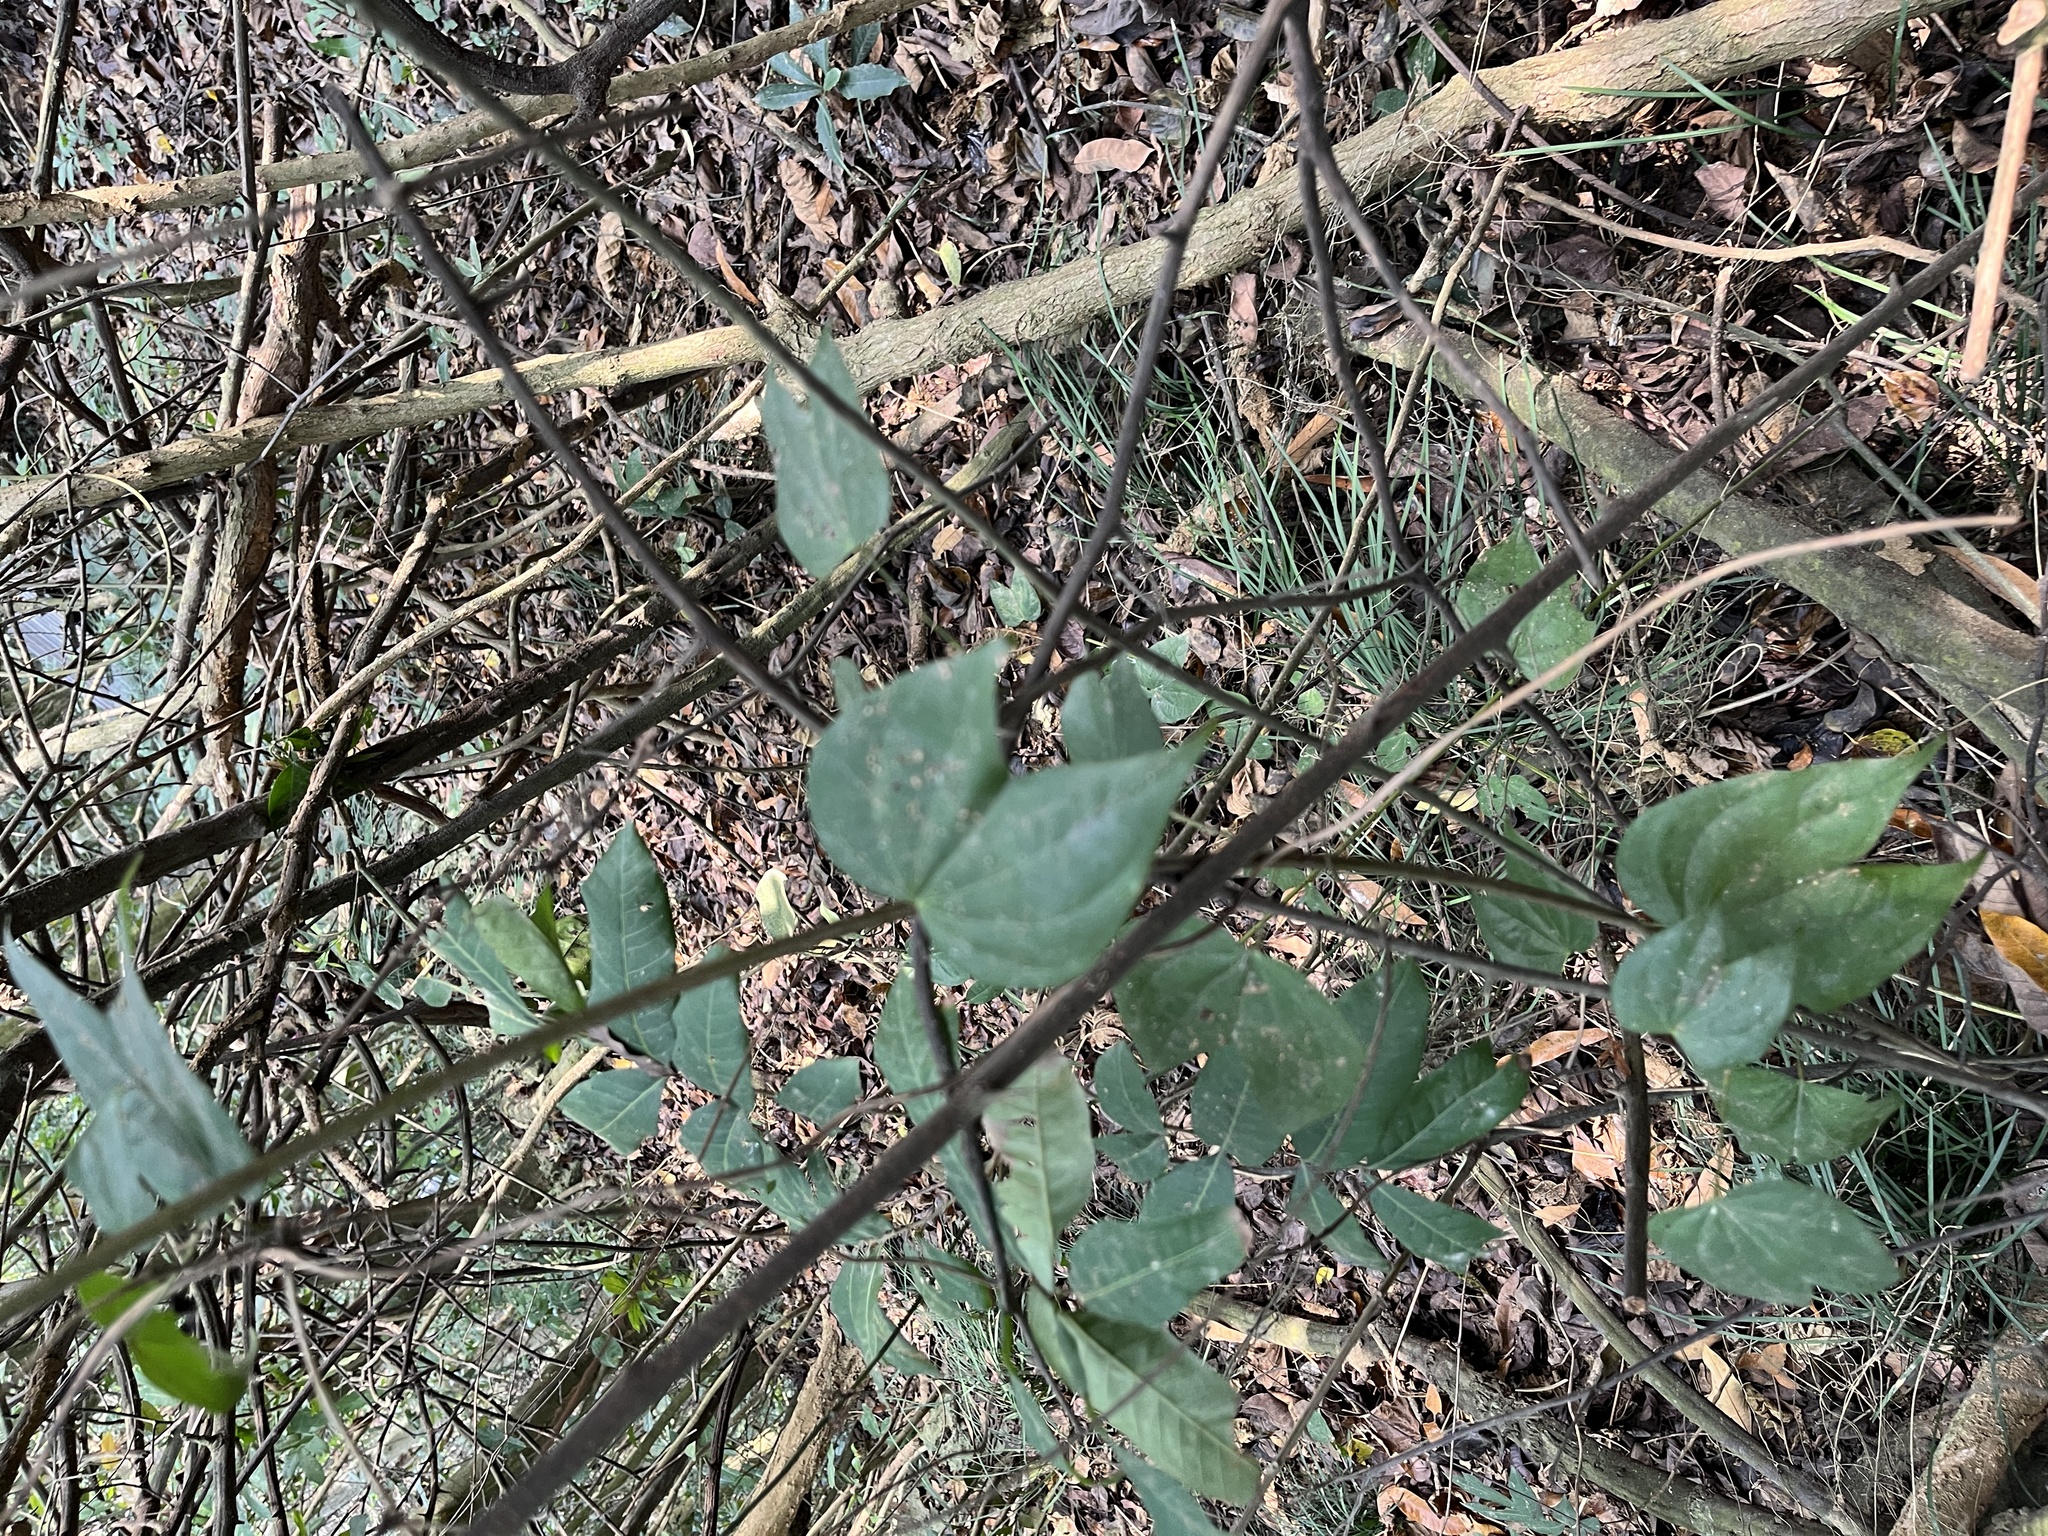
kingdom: Plantae
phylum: Tracheophyta
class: Magnoliopsida
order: Fabales
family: Fabaceae
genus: Phanera
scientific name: Phanera championii
